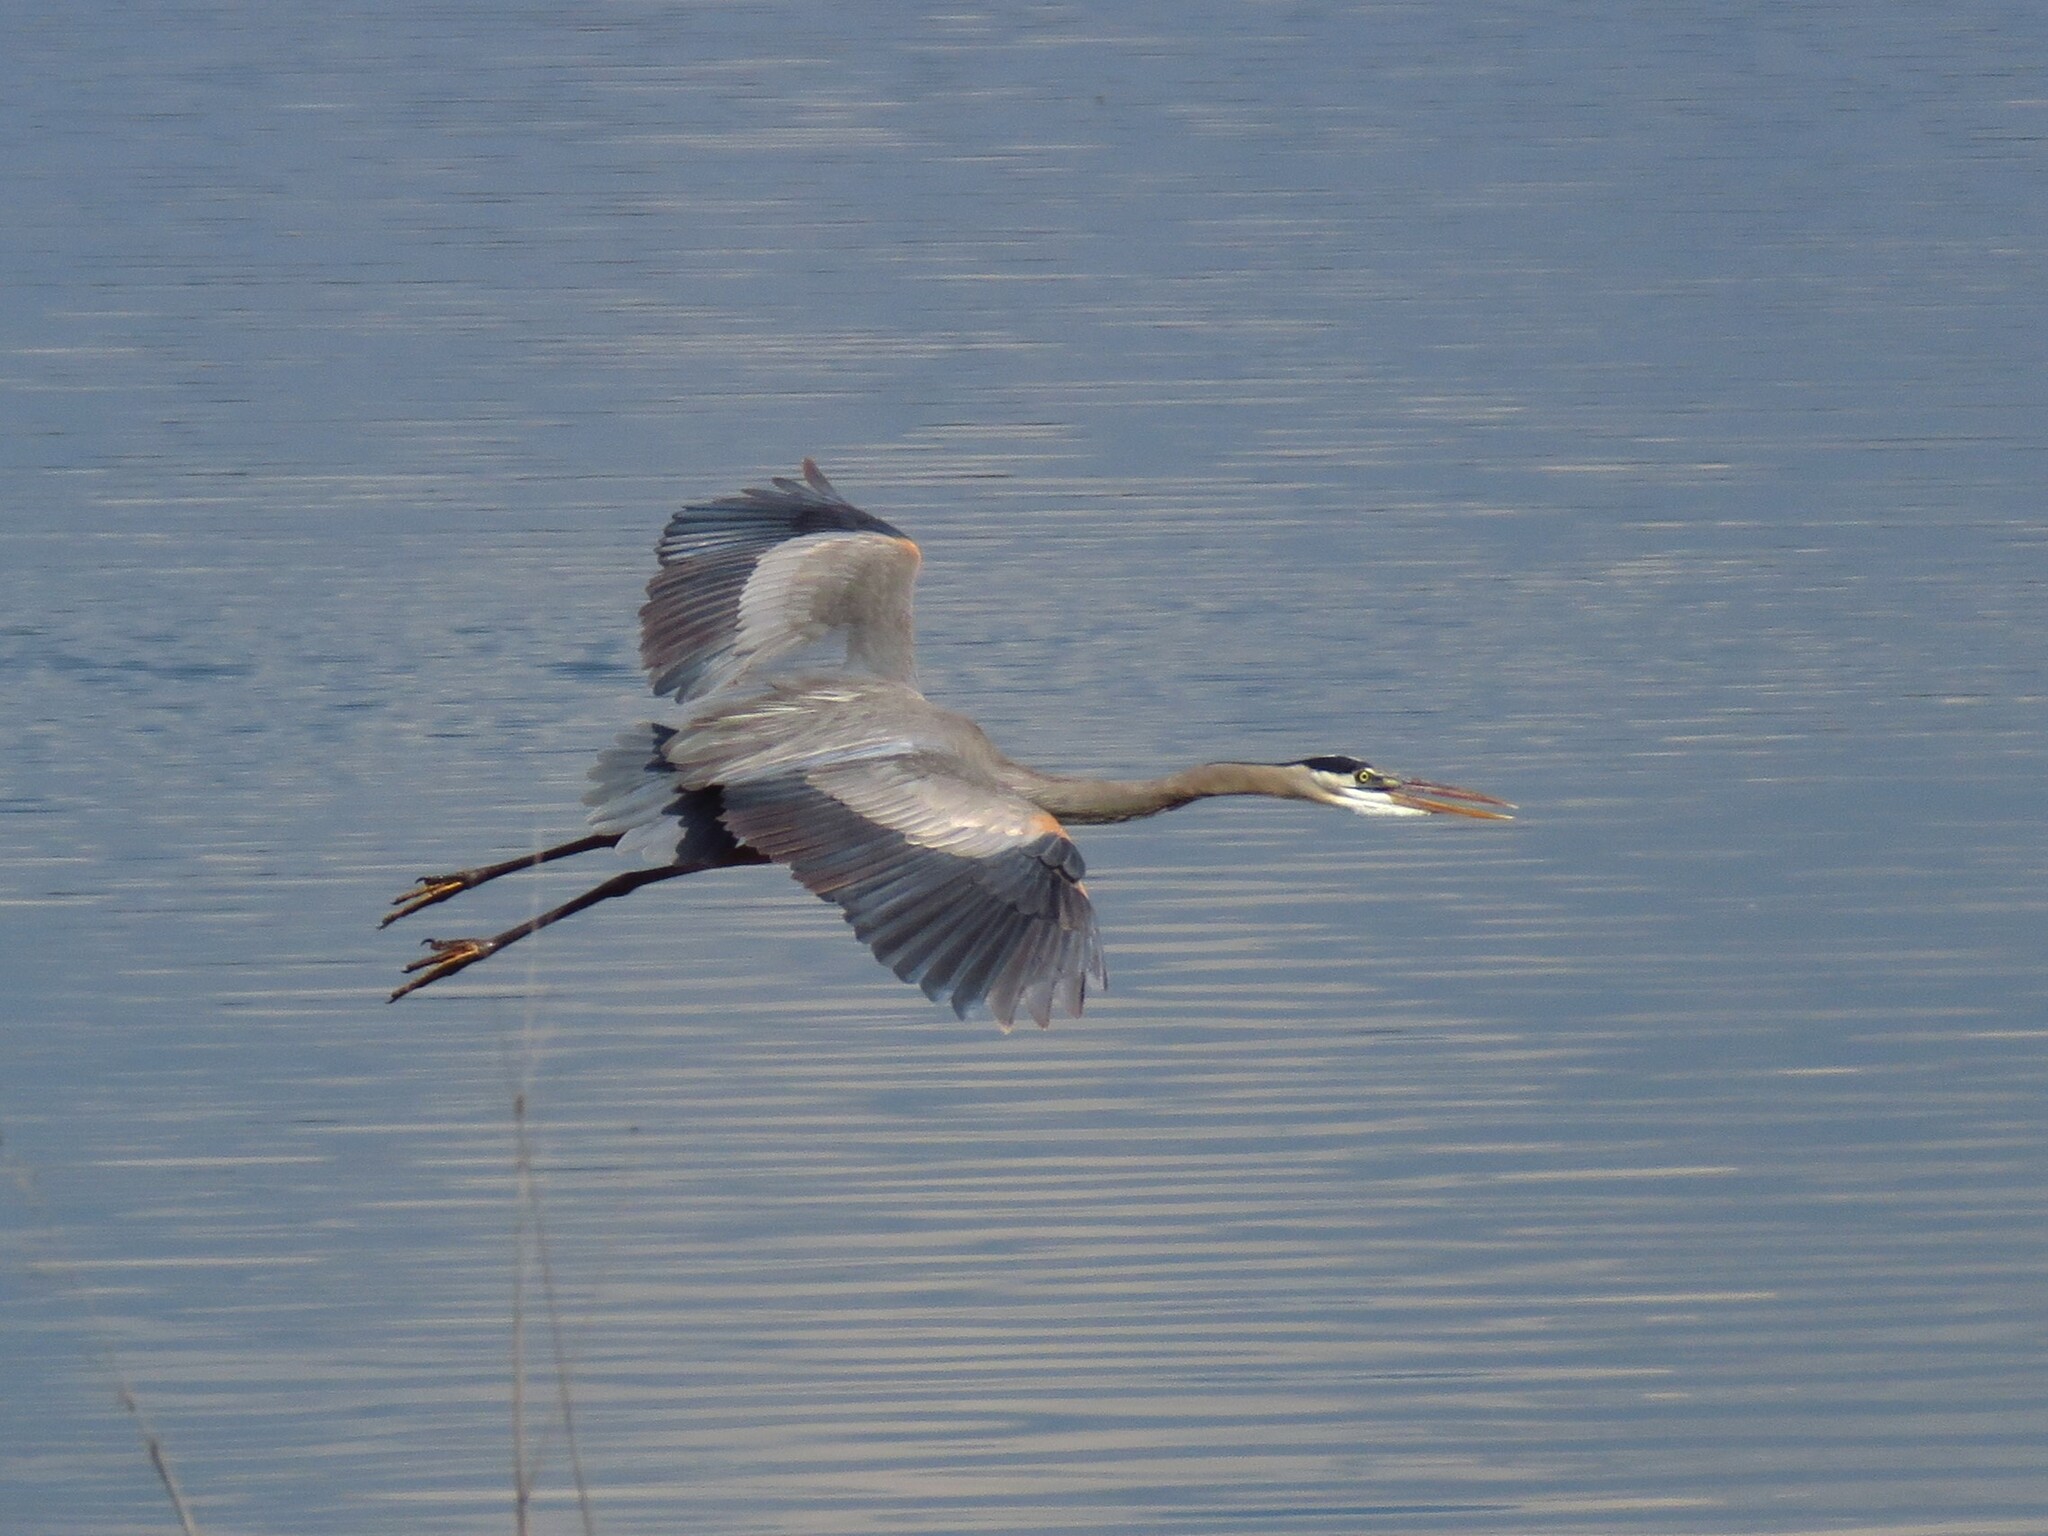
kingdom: Animalia
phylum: Chordata
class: Aves
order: Pelecaniformes
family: Ardeidae
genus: Ardea
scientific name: Ardea herodias
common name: Great blue heron
